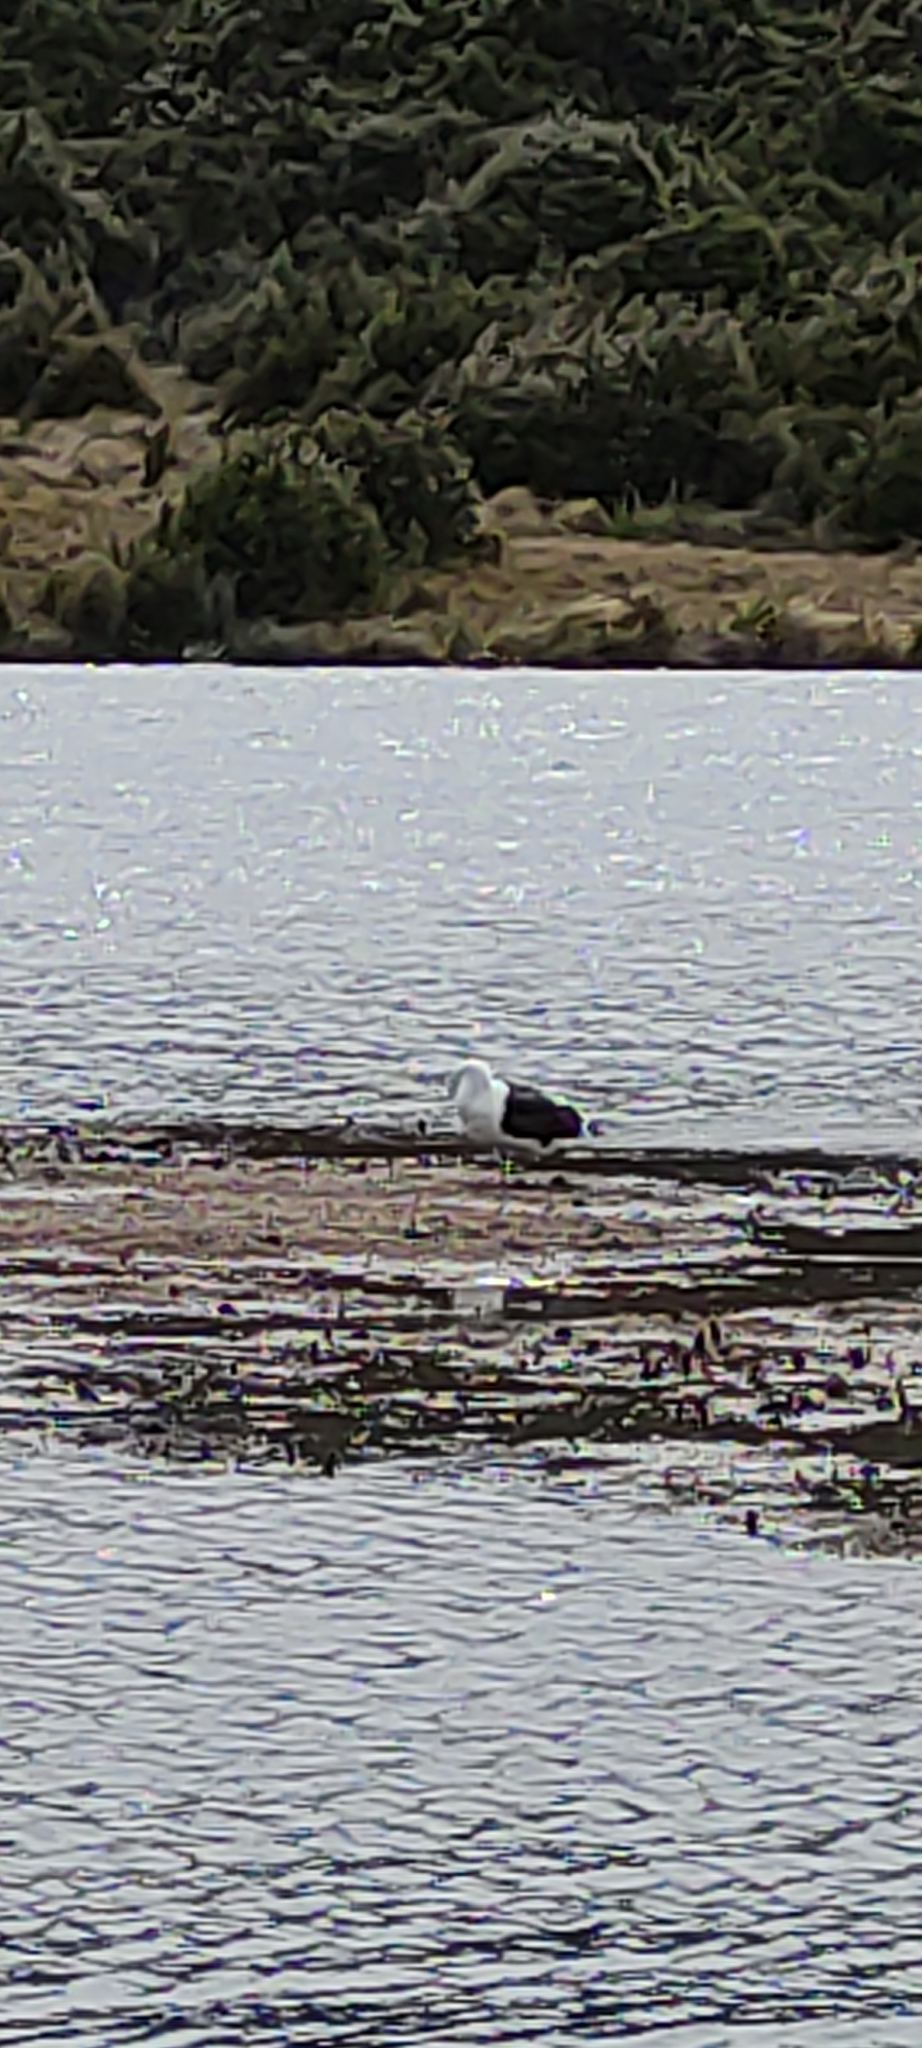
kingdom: Animalia
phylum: Chordata
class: Aves
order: Charadriiformes
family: Laridae
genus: Larus
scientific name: Larus dominicanus
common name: Kelp gull
